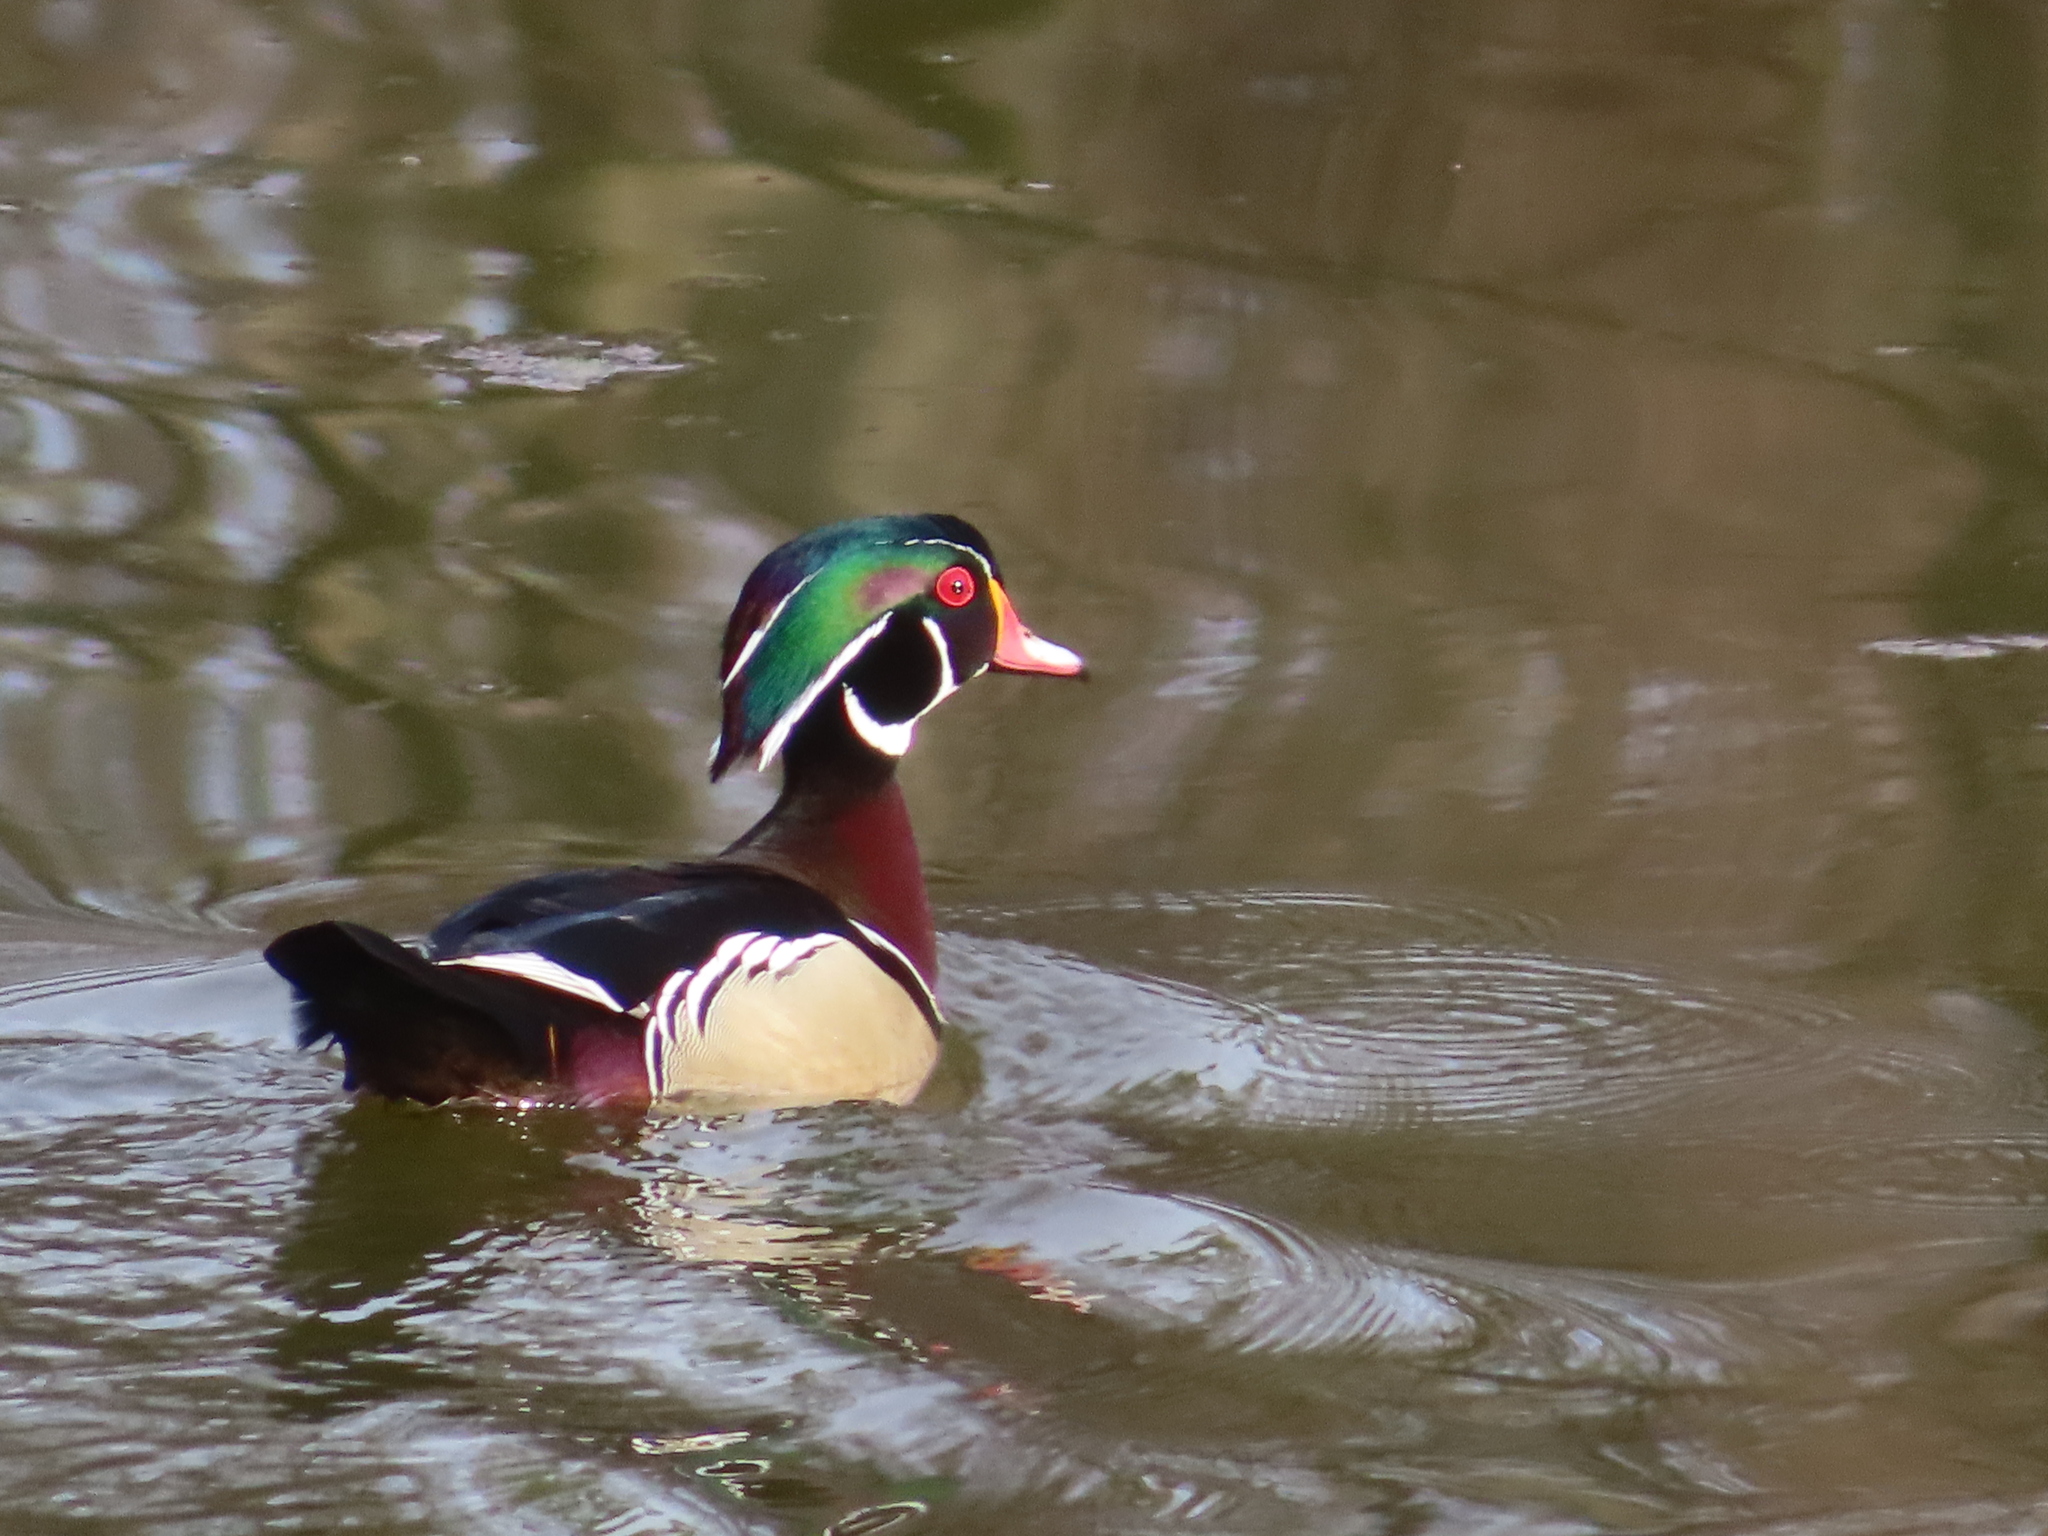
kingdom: Animalia
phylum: Chordata
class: Aves
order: Anseriformes
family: Anatidae
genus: Aix
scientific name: Aix sponsa
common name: Wood duck
